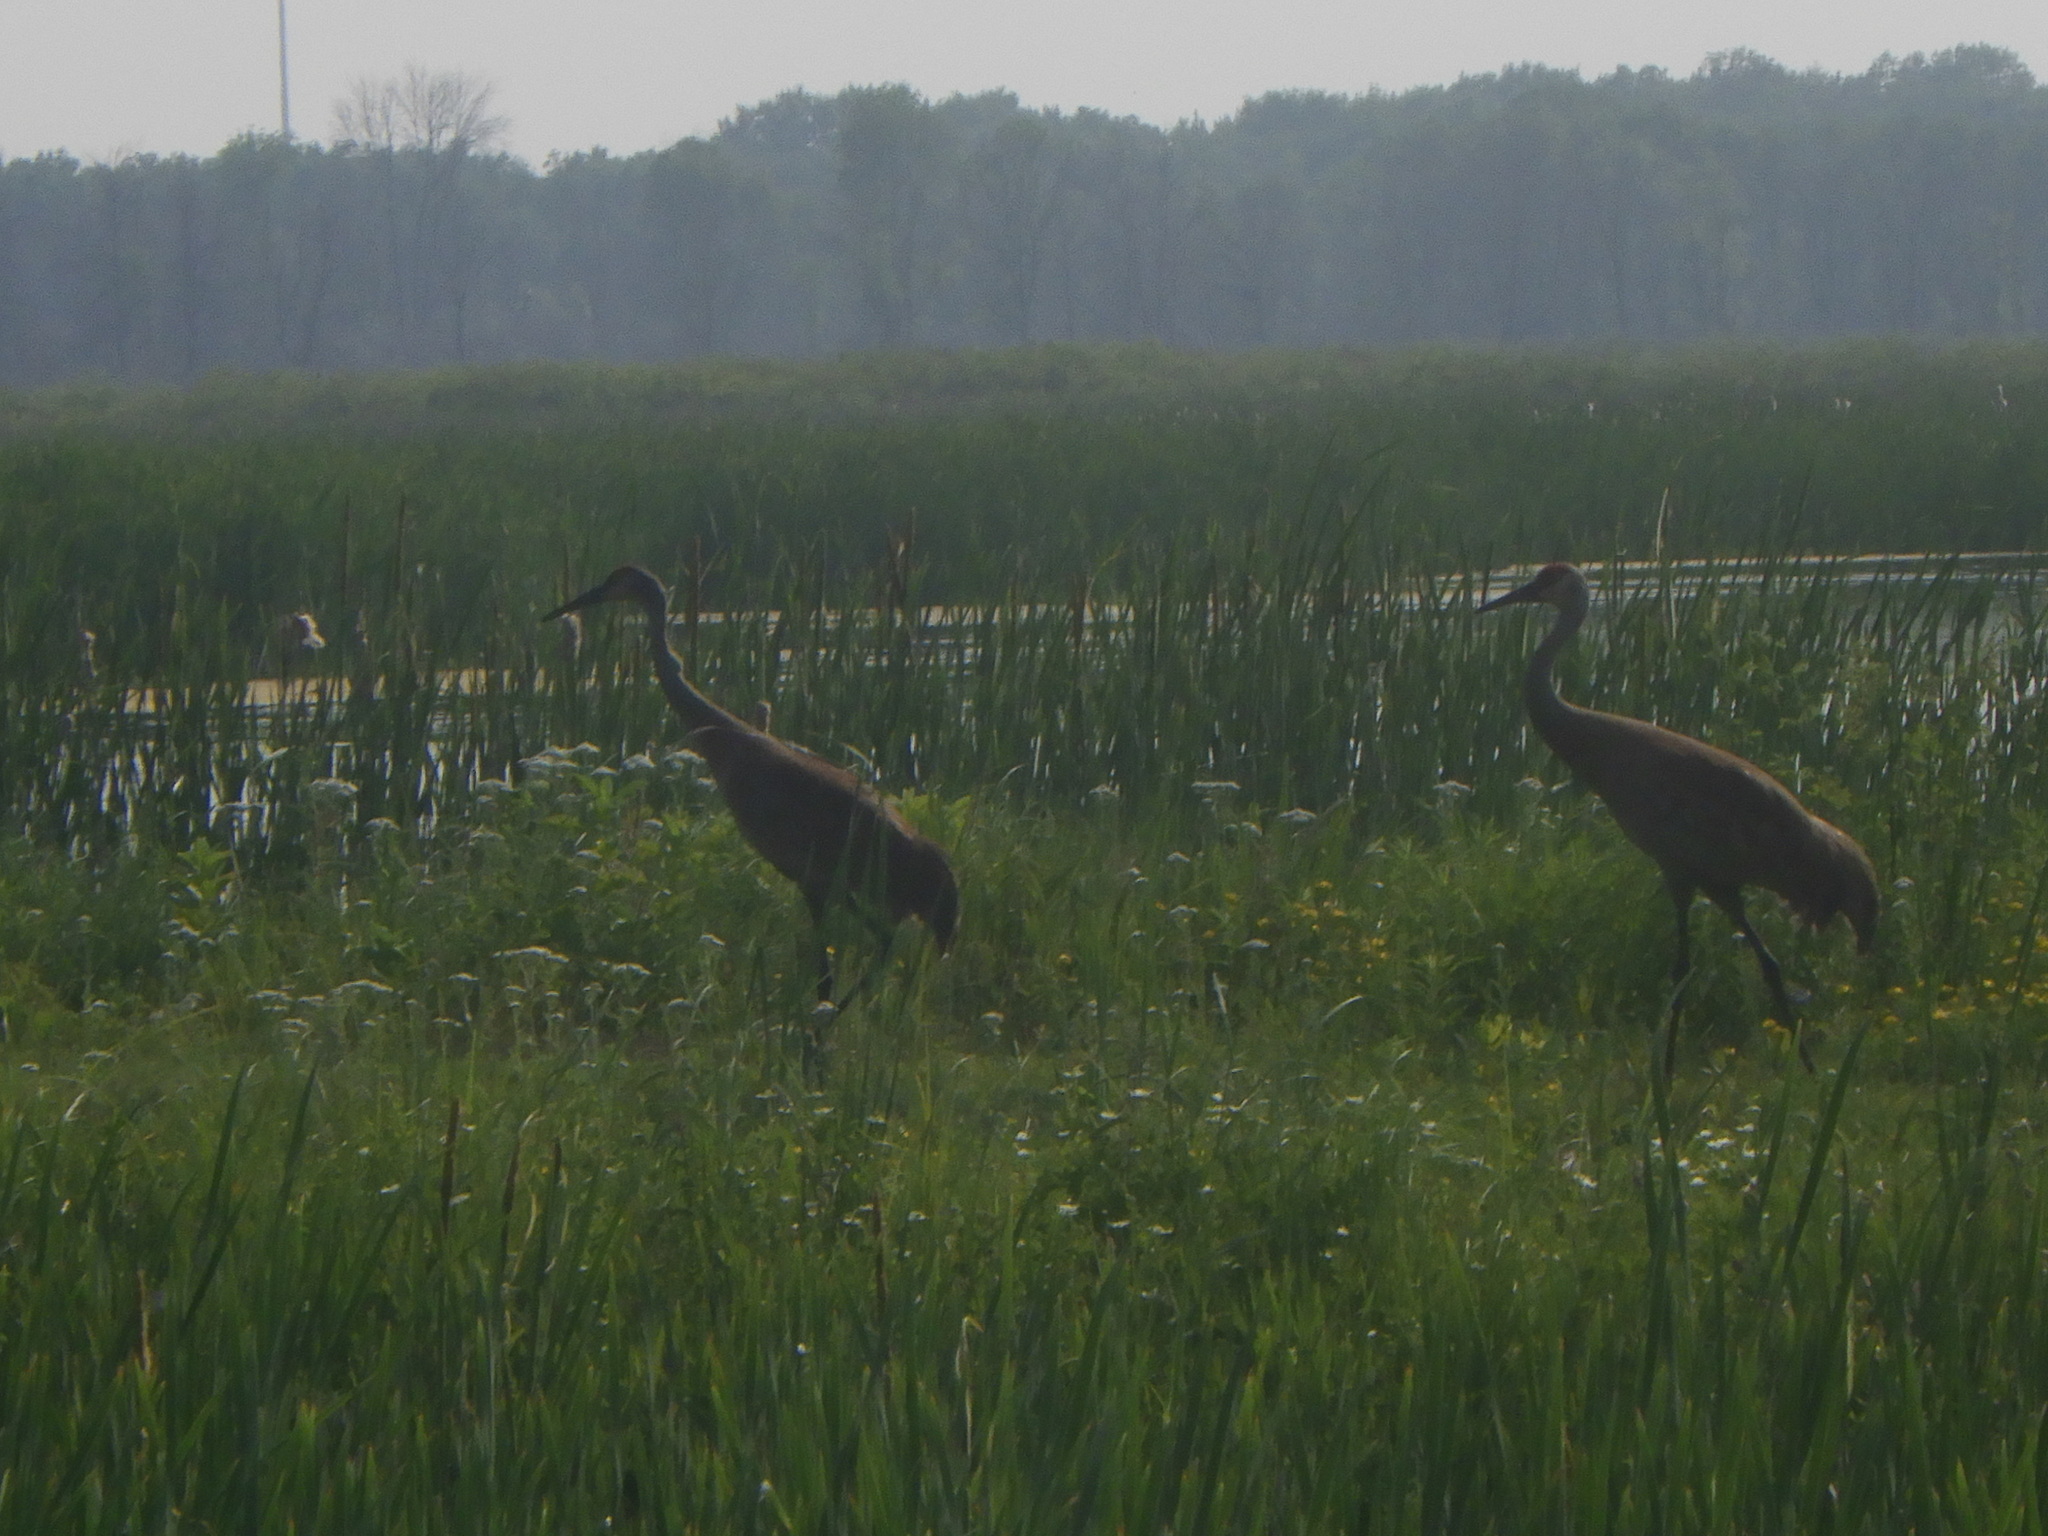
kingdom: Animalia
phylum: Chordata
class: Aves
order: Gruiformes
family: Gruidae
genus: Grus
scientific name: Grus canadensis
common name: Sandhill crane
